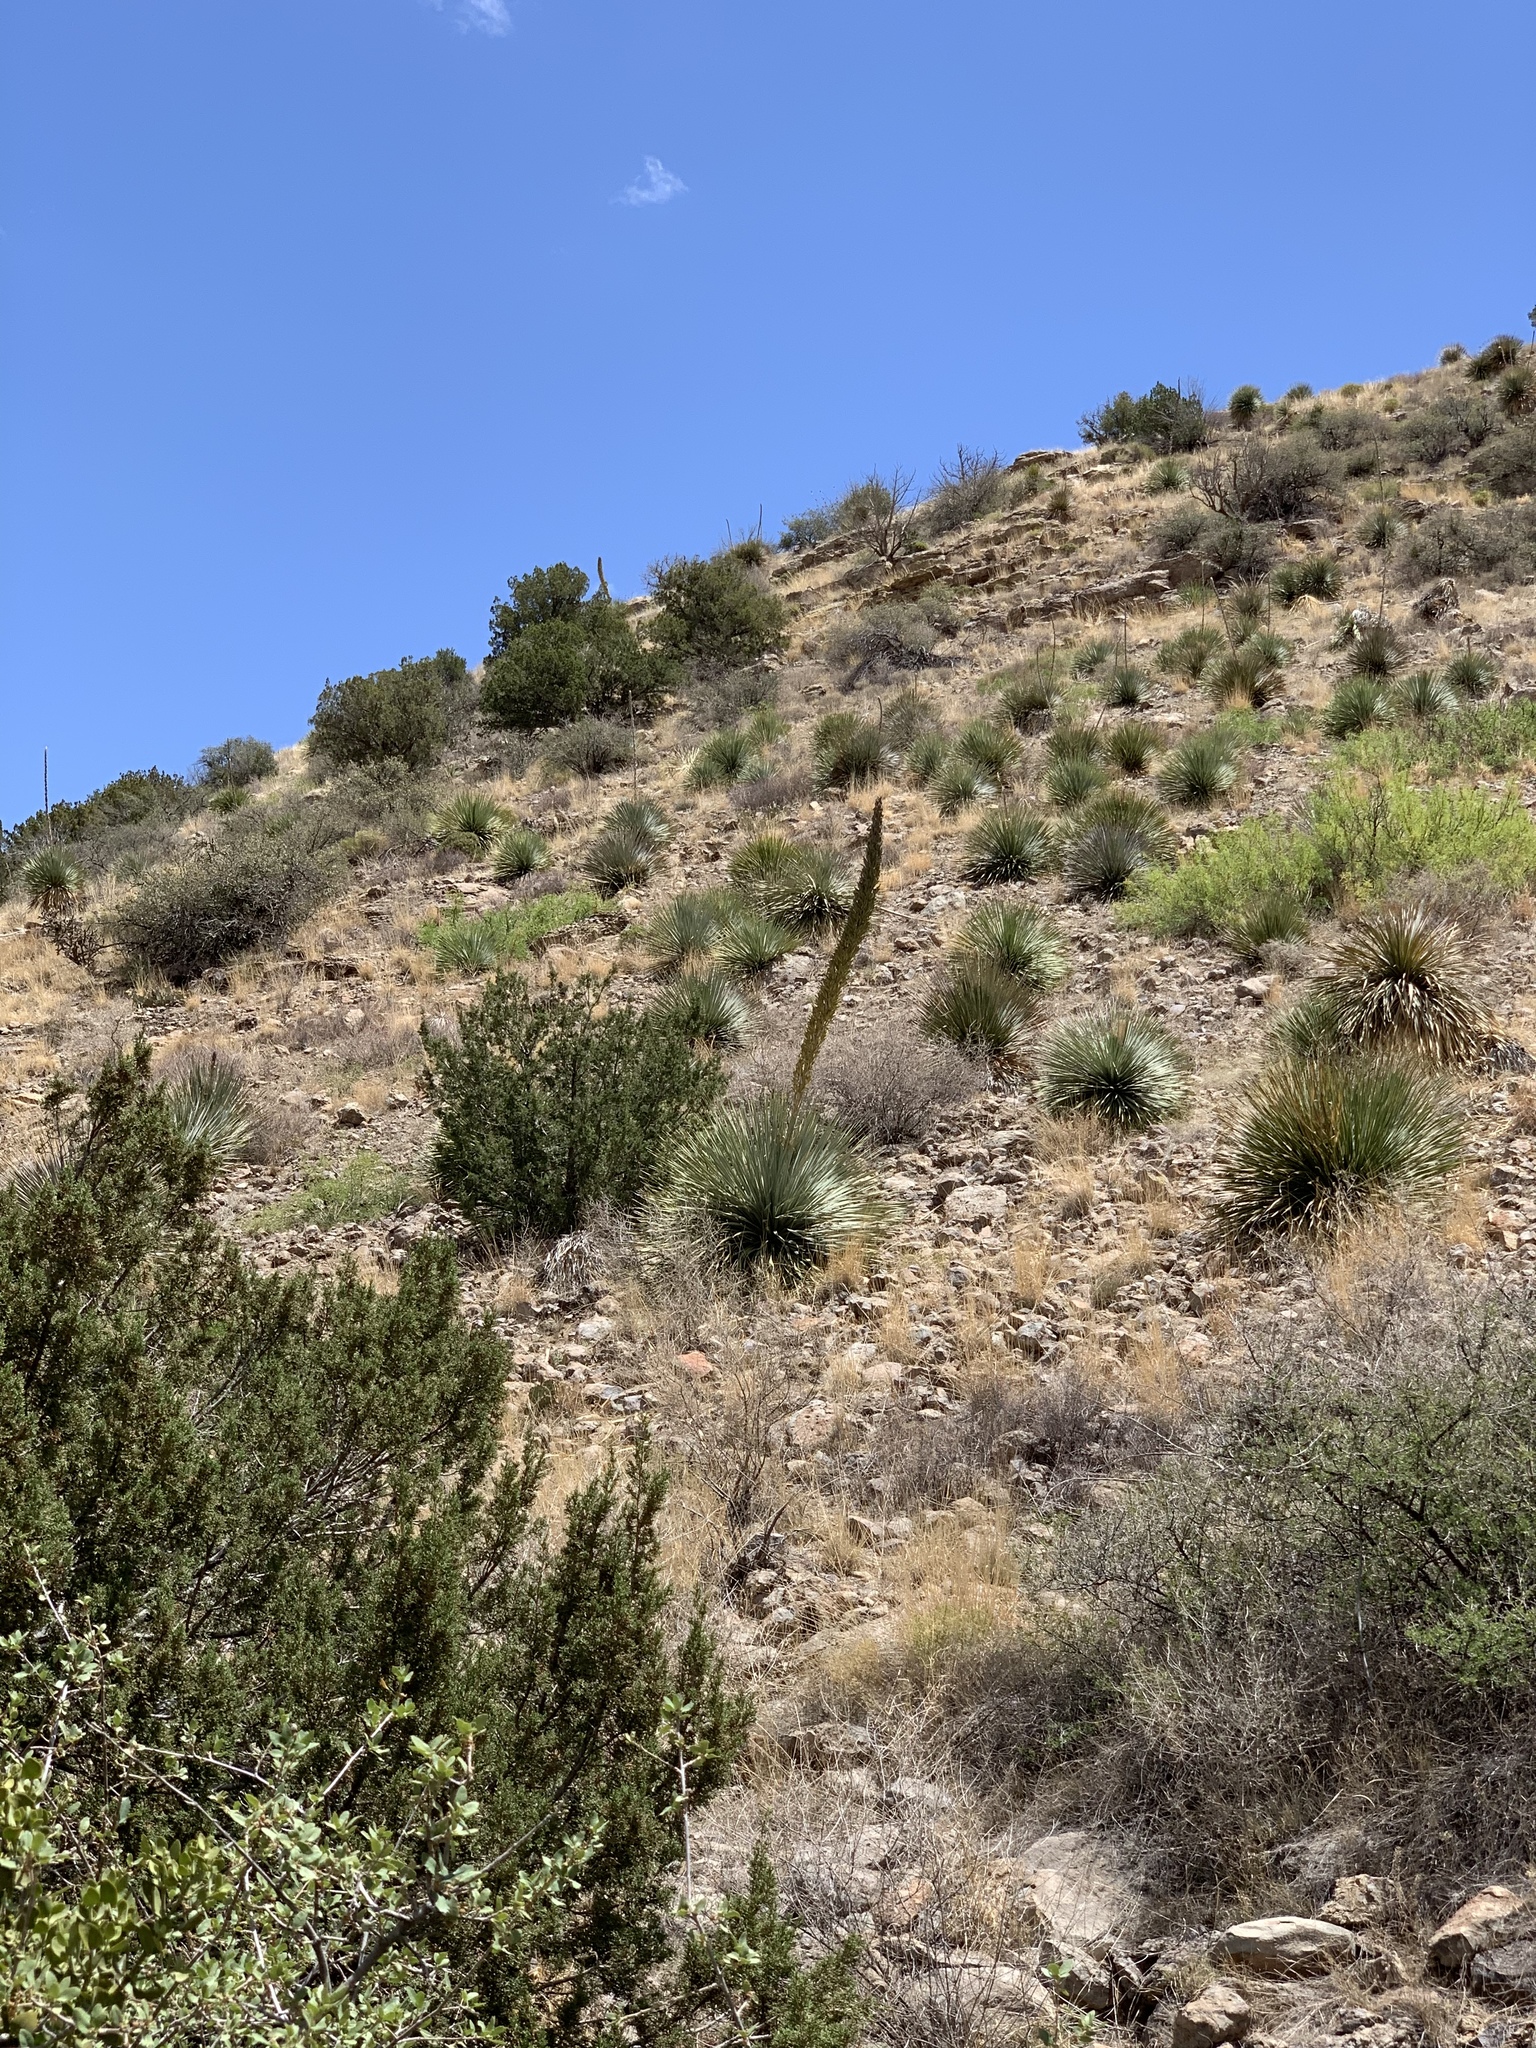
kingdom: Plantae
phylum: Tracheophyta
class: Liliopsida
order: Asparagales
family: Asparagaceae
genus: Dasylirion
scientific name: Dasylirion wheeleri
